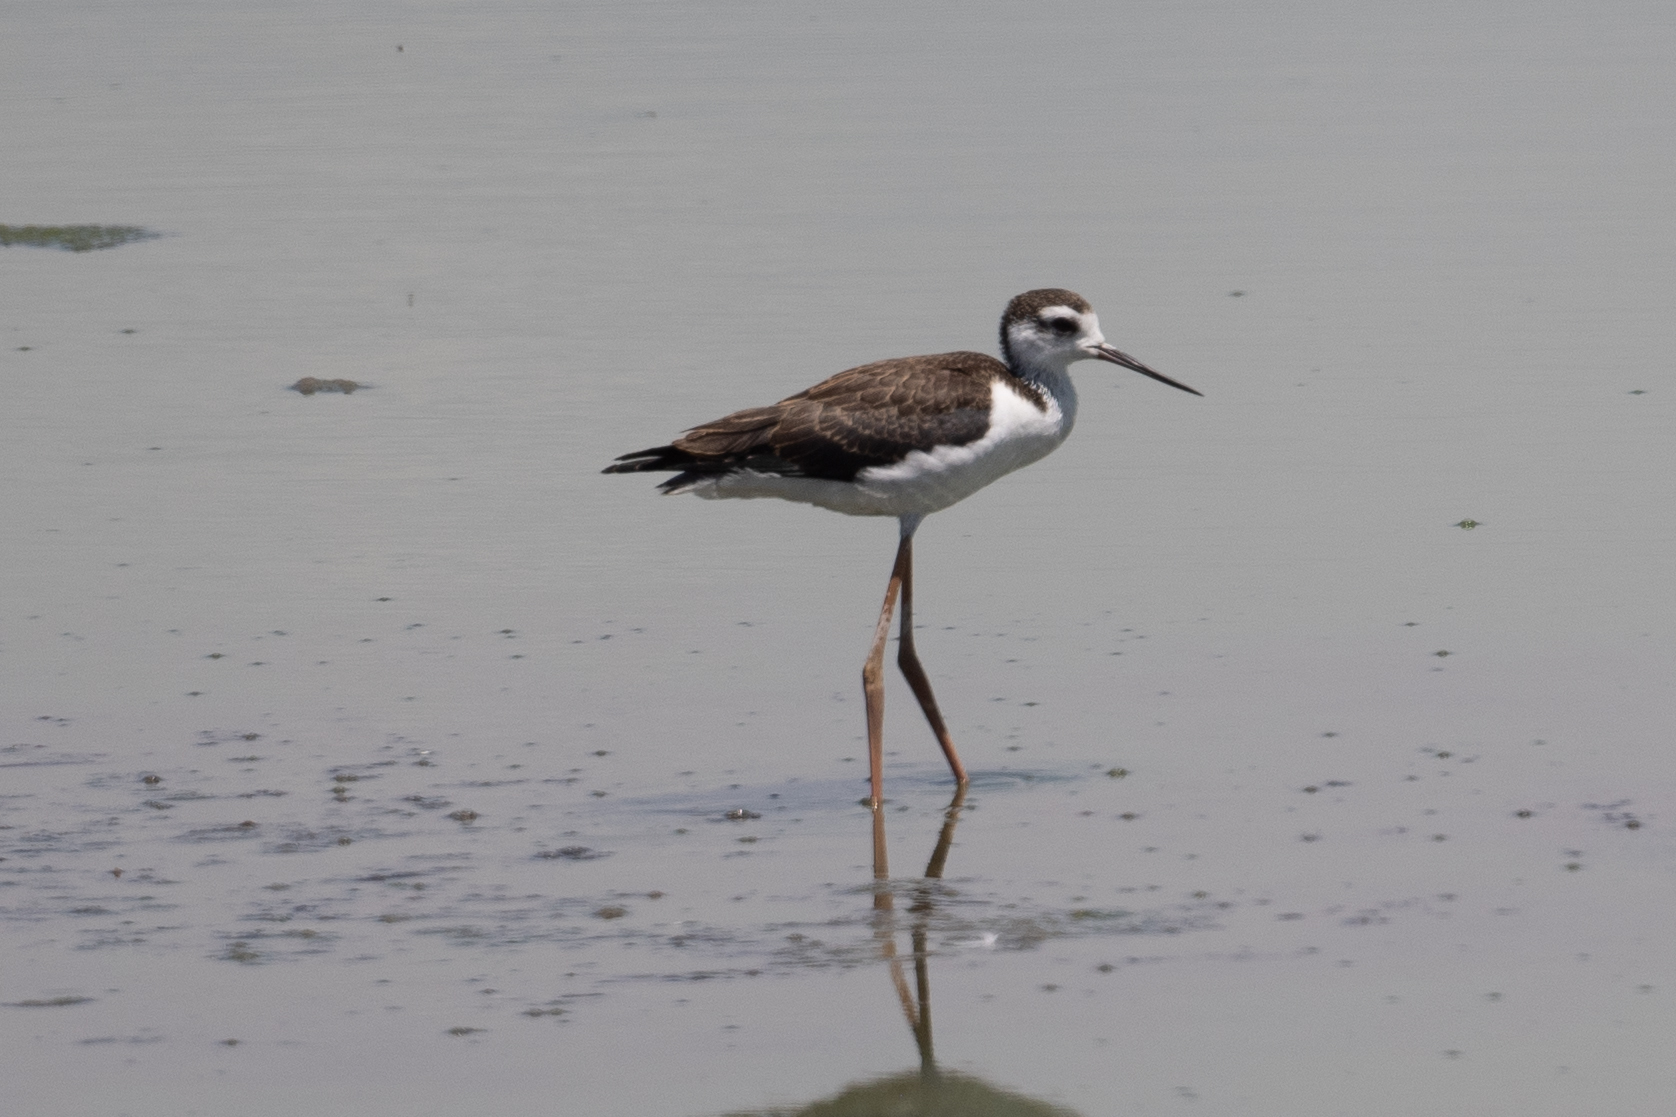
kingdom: Animalia
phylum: Chordata
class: Aves
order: Charadriiformes
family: Recurvirostridae
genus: Himantopus
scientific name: Himantopus mexicanus
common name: Black-necked stilt
